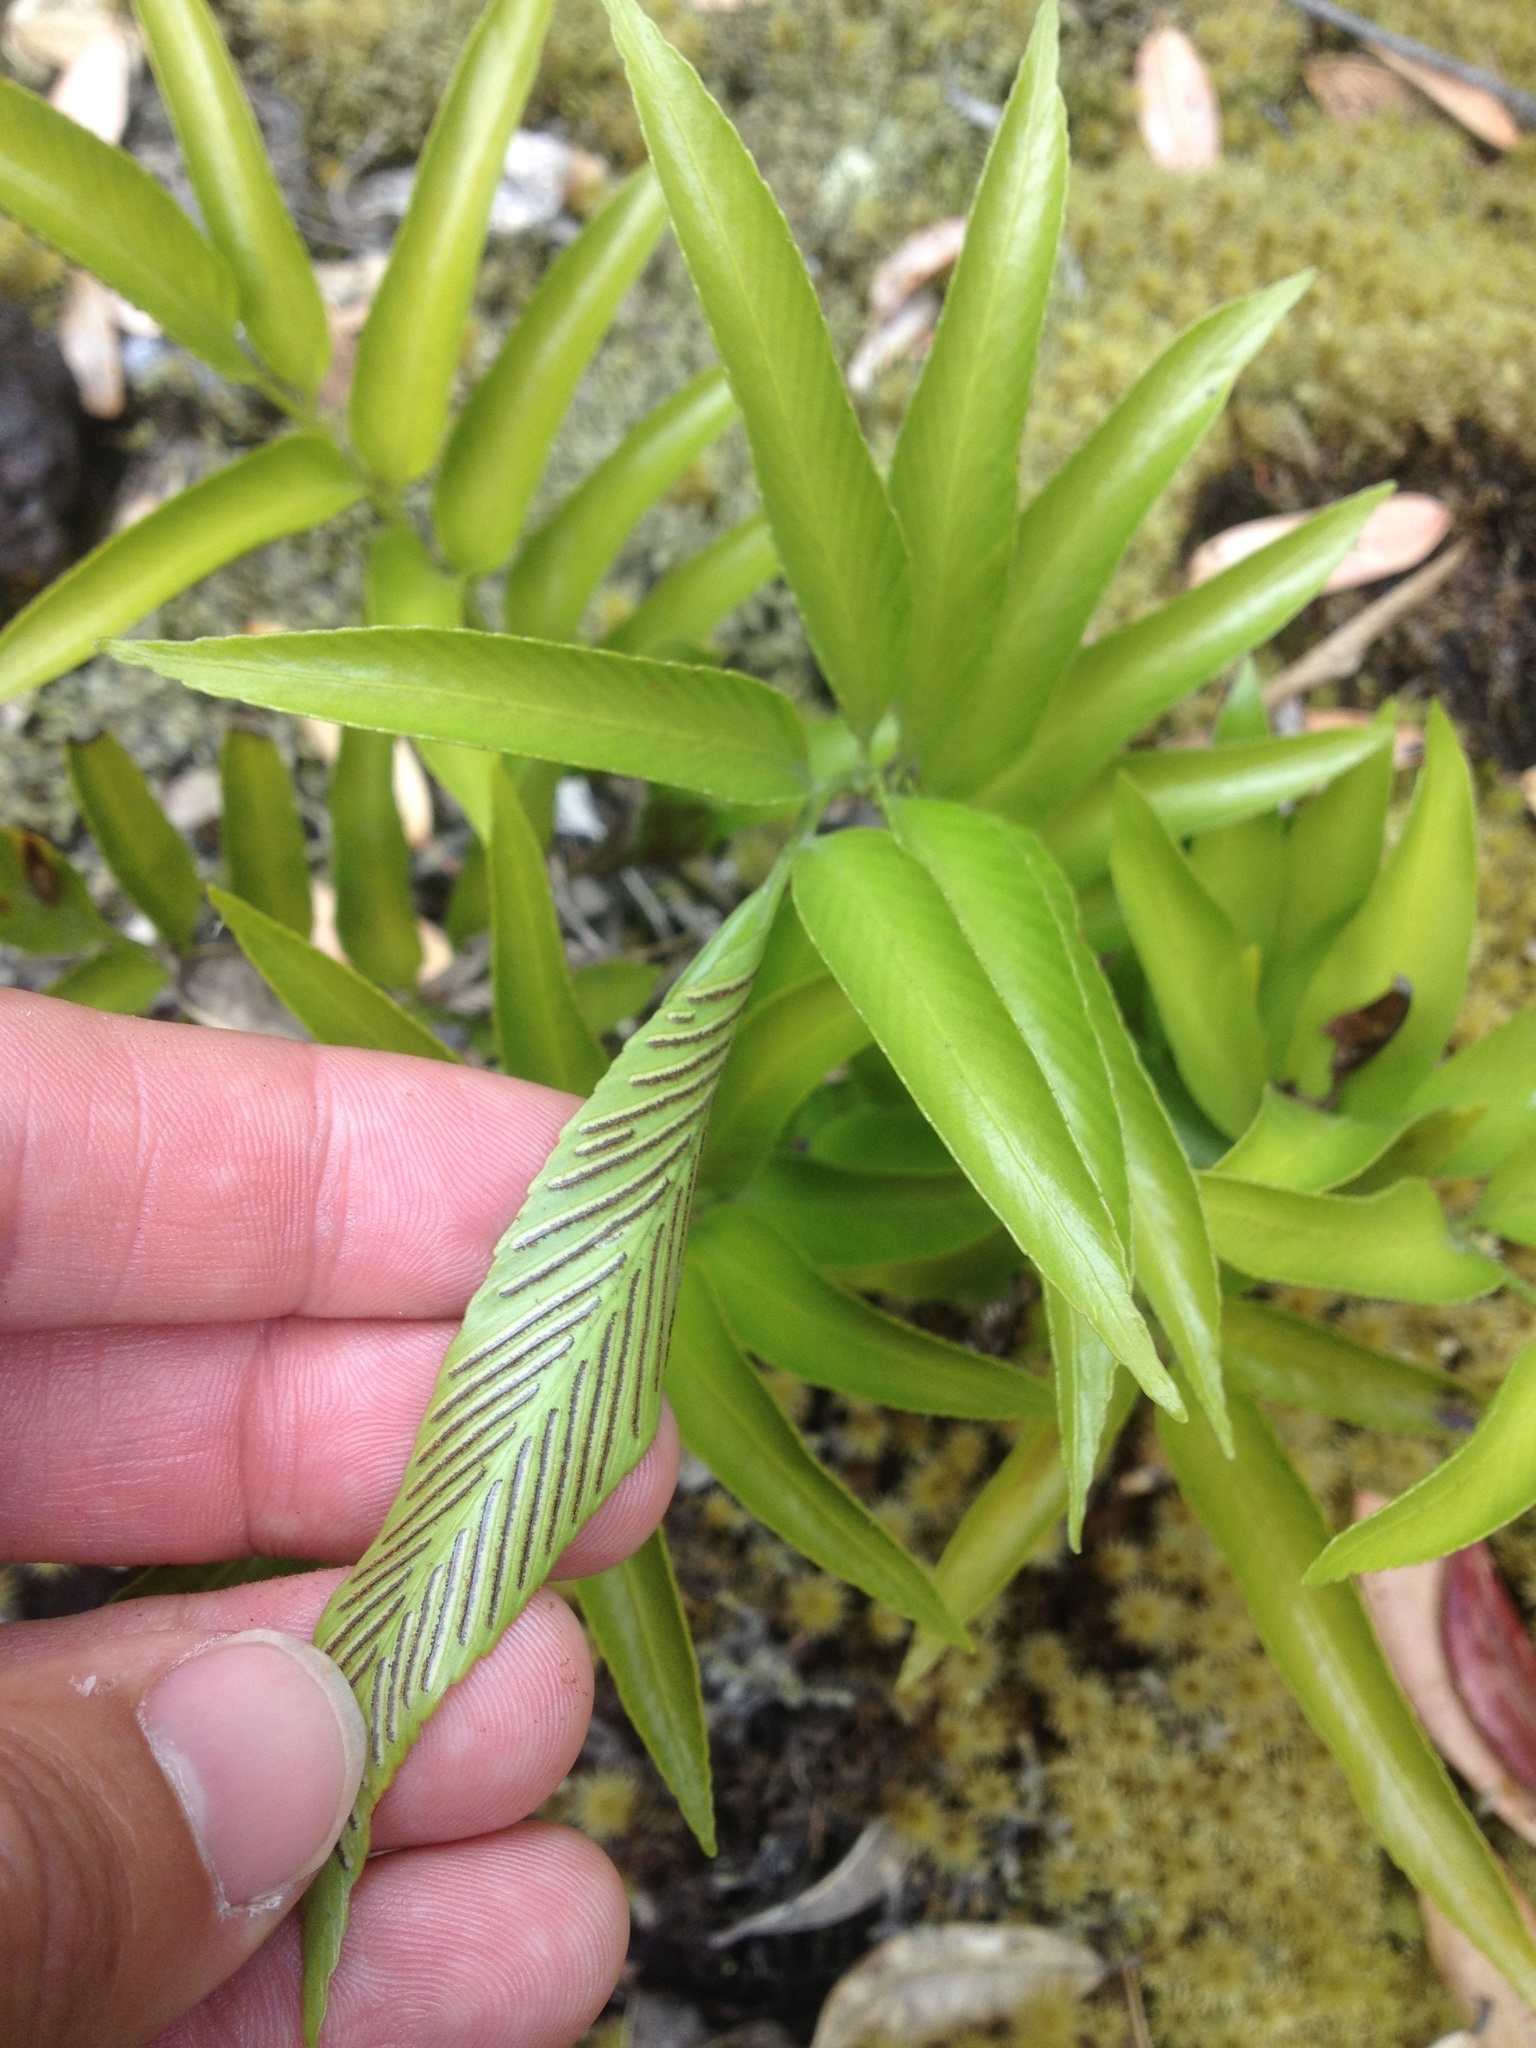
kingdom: Plantae
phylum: Tracheophyta
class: Polypodiopsida
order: Polypodiales
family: Aspleniaceae
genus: Asplenium
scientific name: Asplenium oblongifolium
